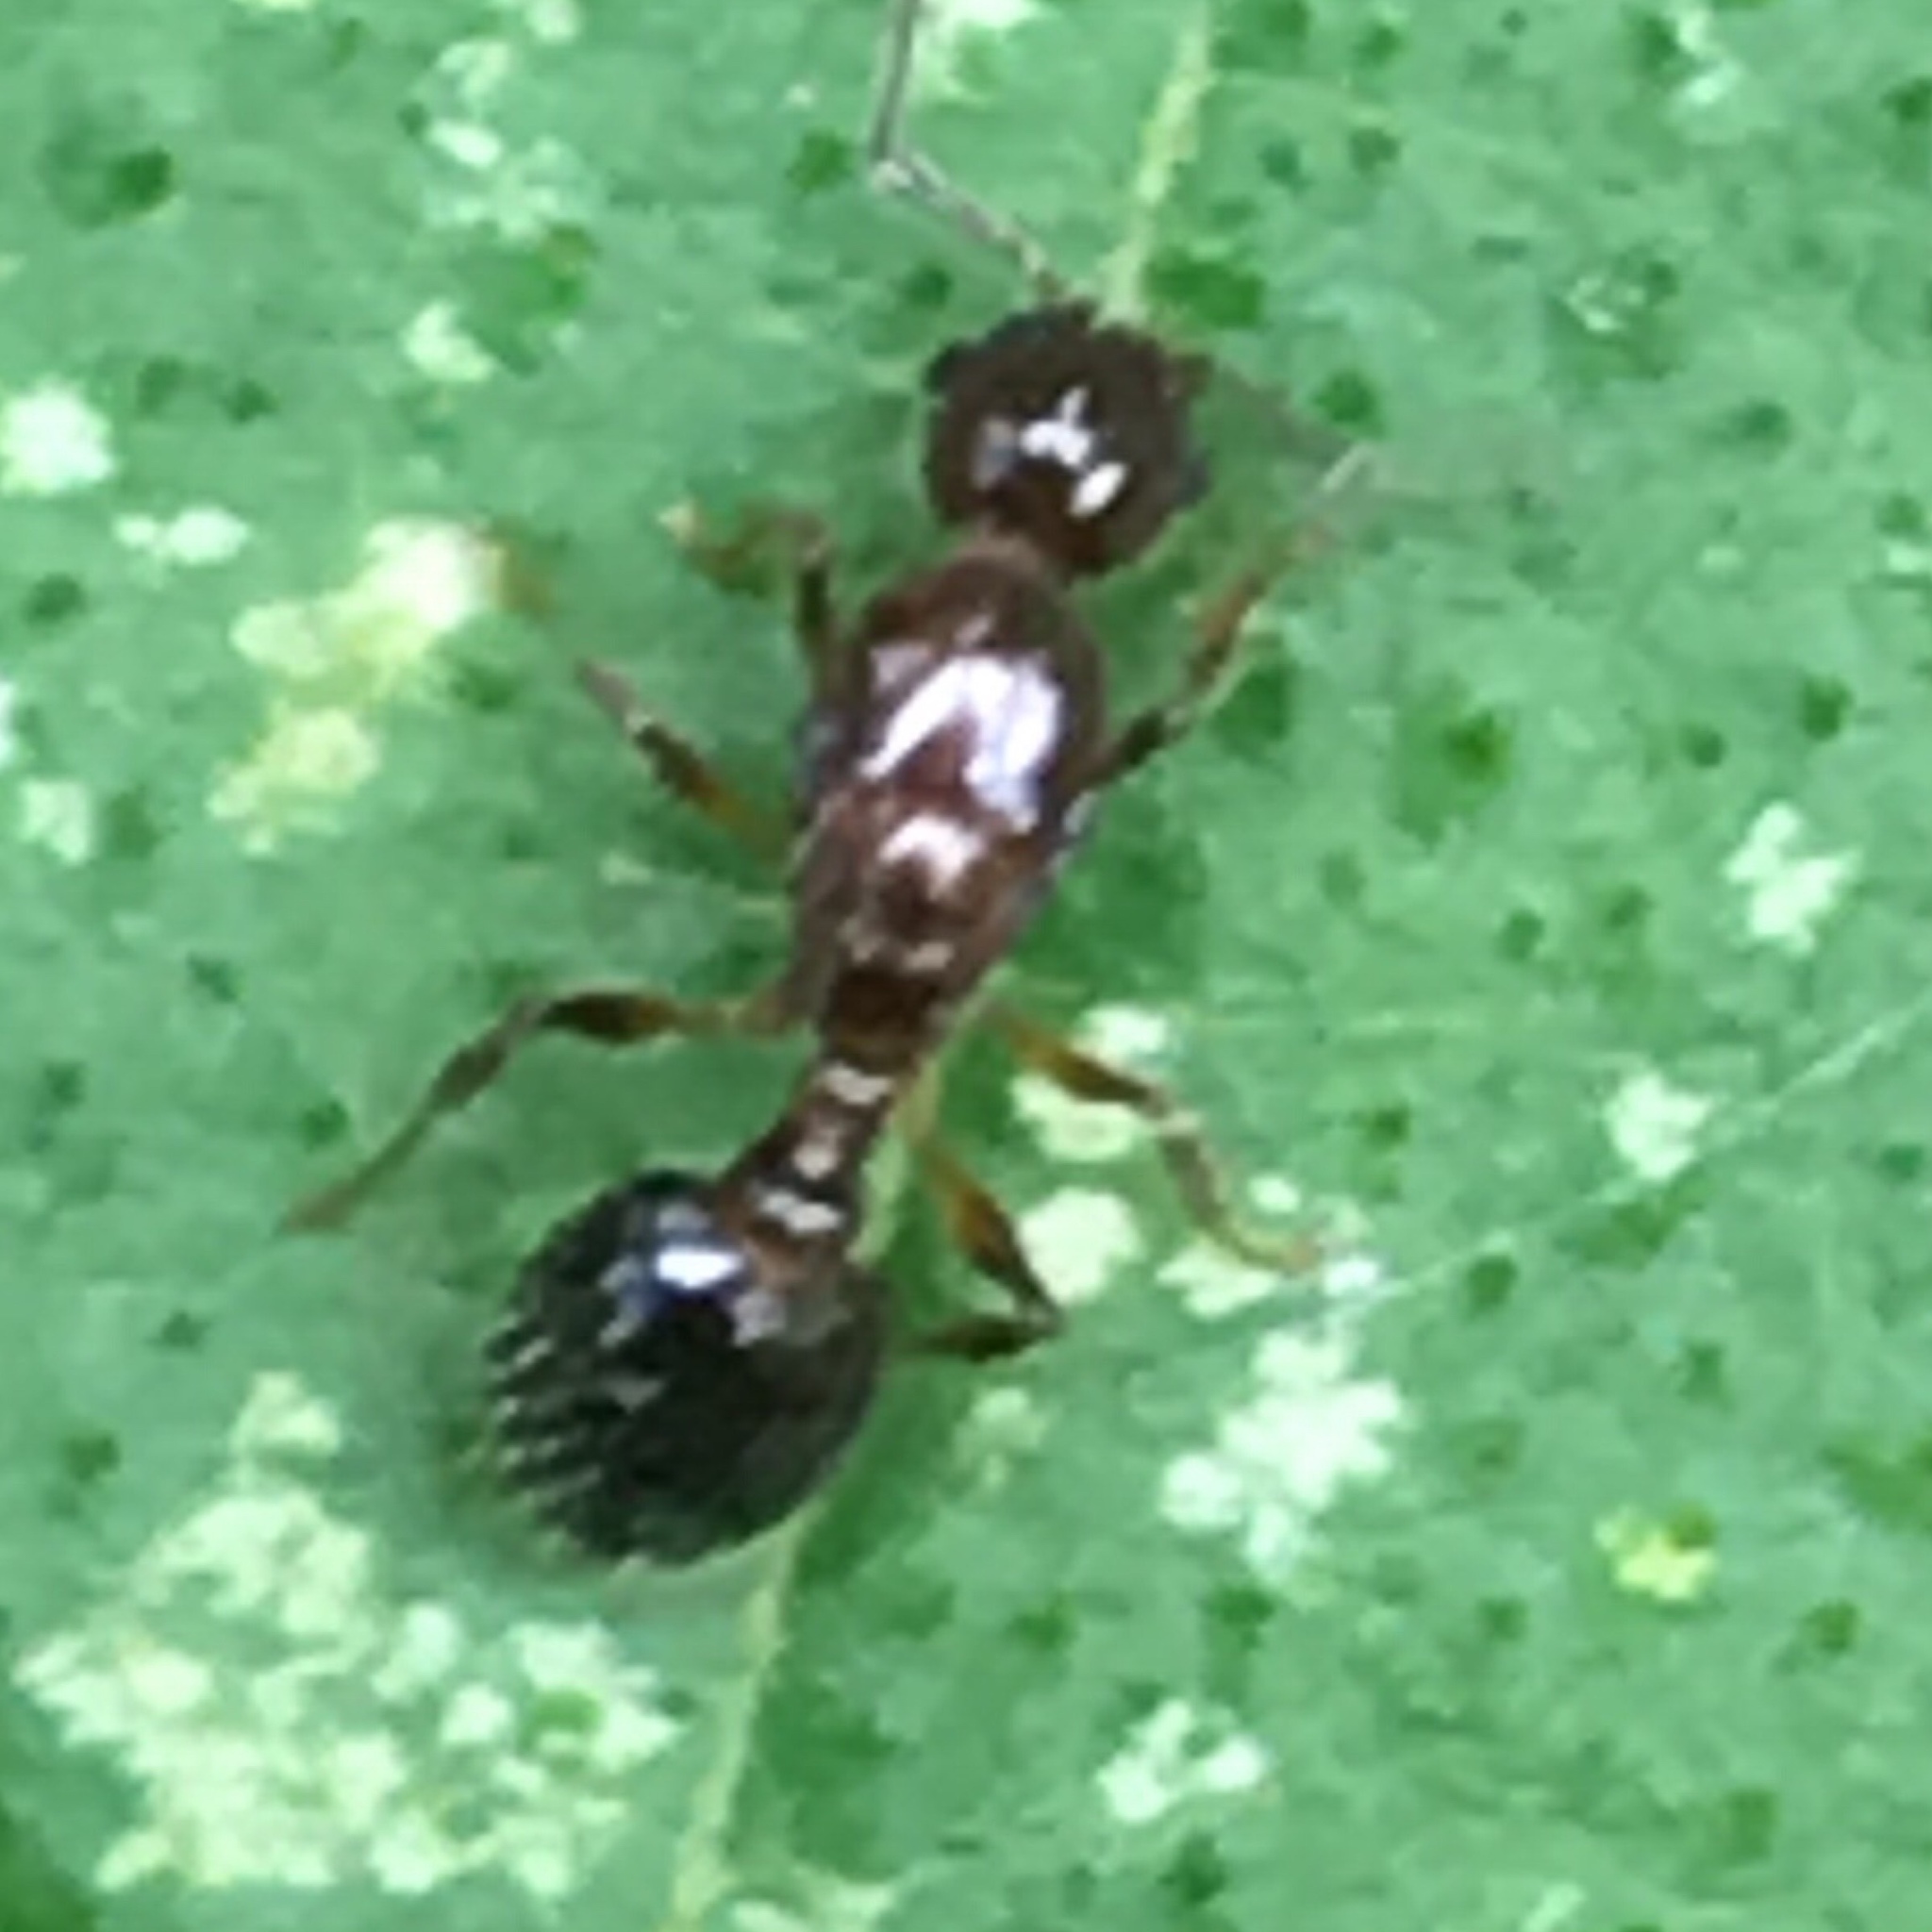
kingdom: Animalia
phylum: Arthropoda
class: Insecta
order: Hymenoptera
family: Formicidae
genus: Temnothorax
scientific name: Temnothorax pergandei
